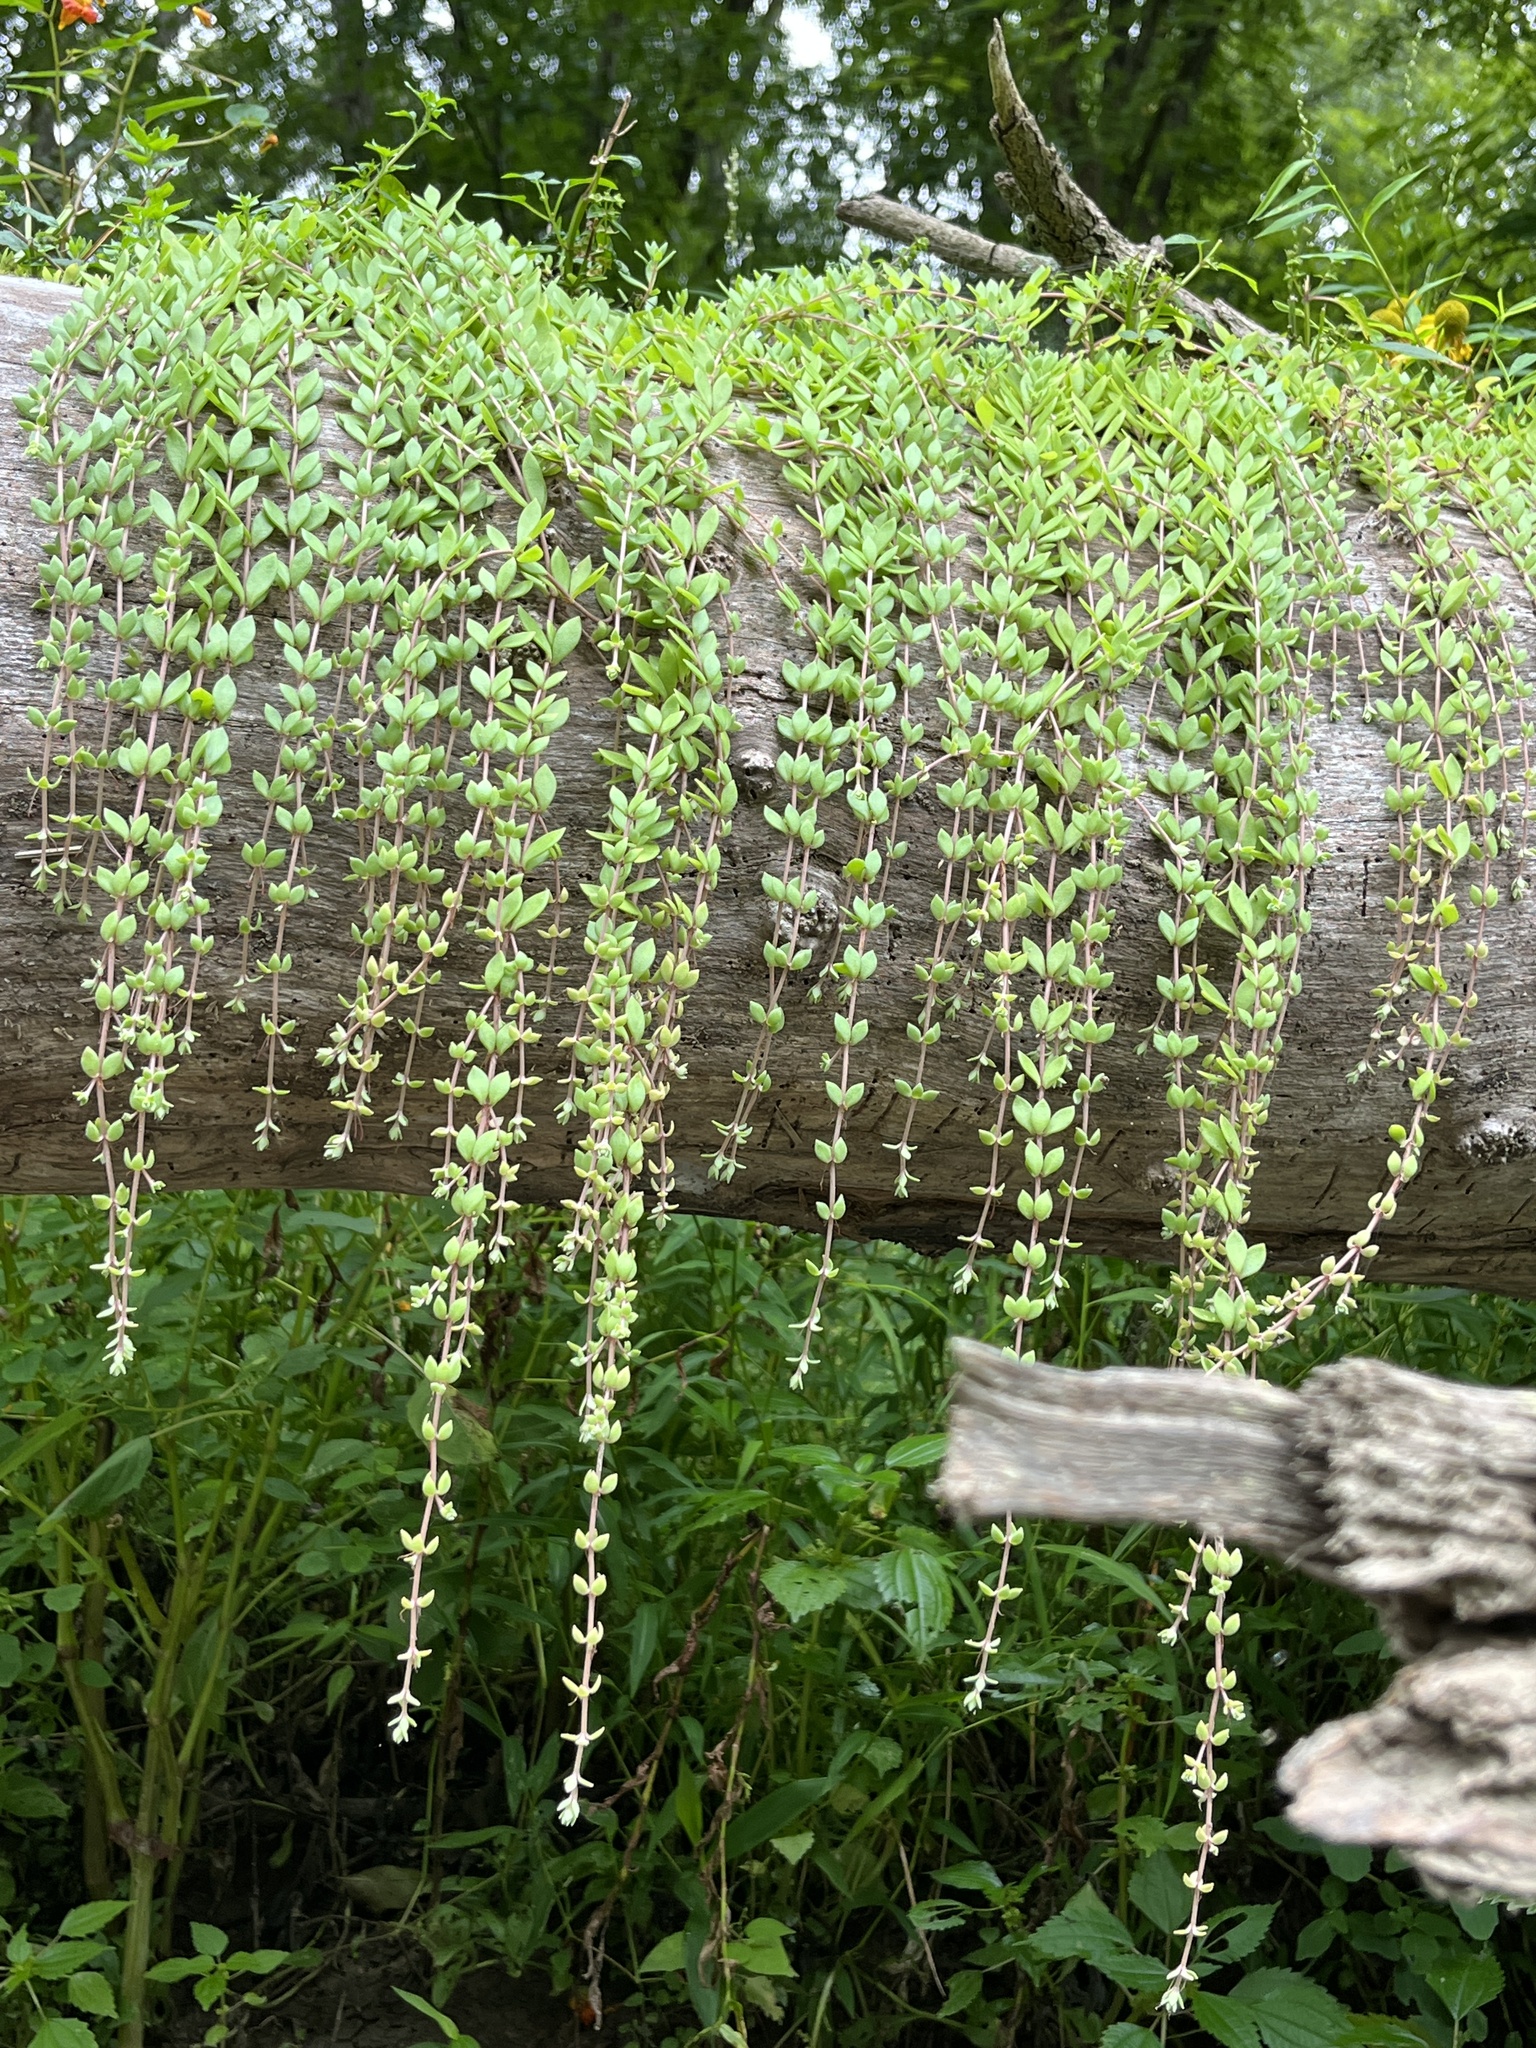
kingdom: Plantae
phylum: Tracheophyta
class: Magnoliopsida
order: Saxifragales
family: Crassulaceae
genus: Sedum
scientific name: Sedum sarmentosum
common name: Stringy stonecrop
